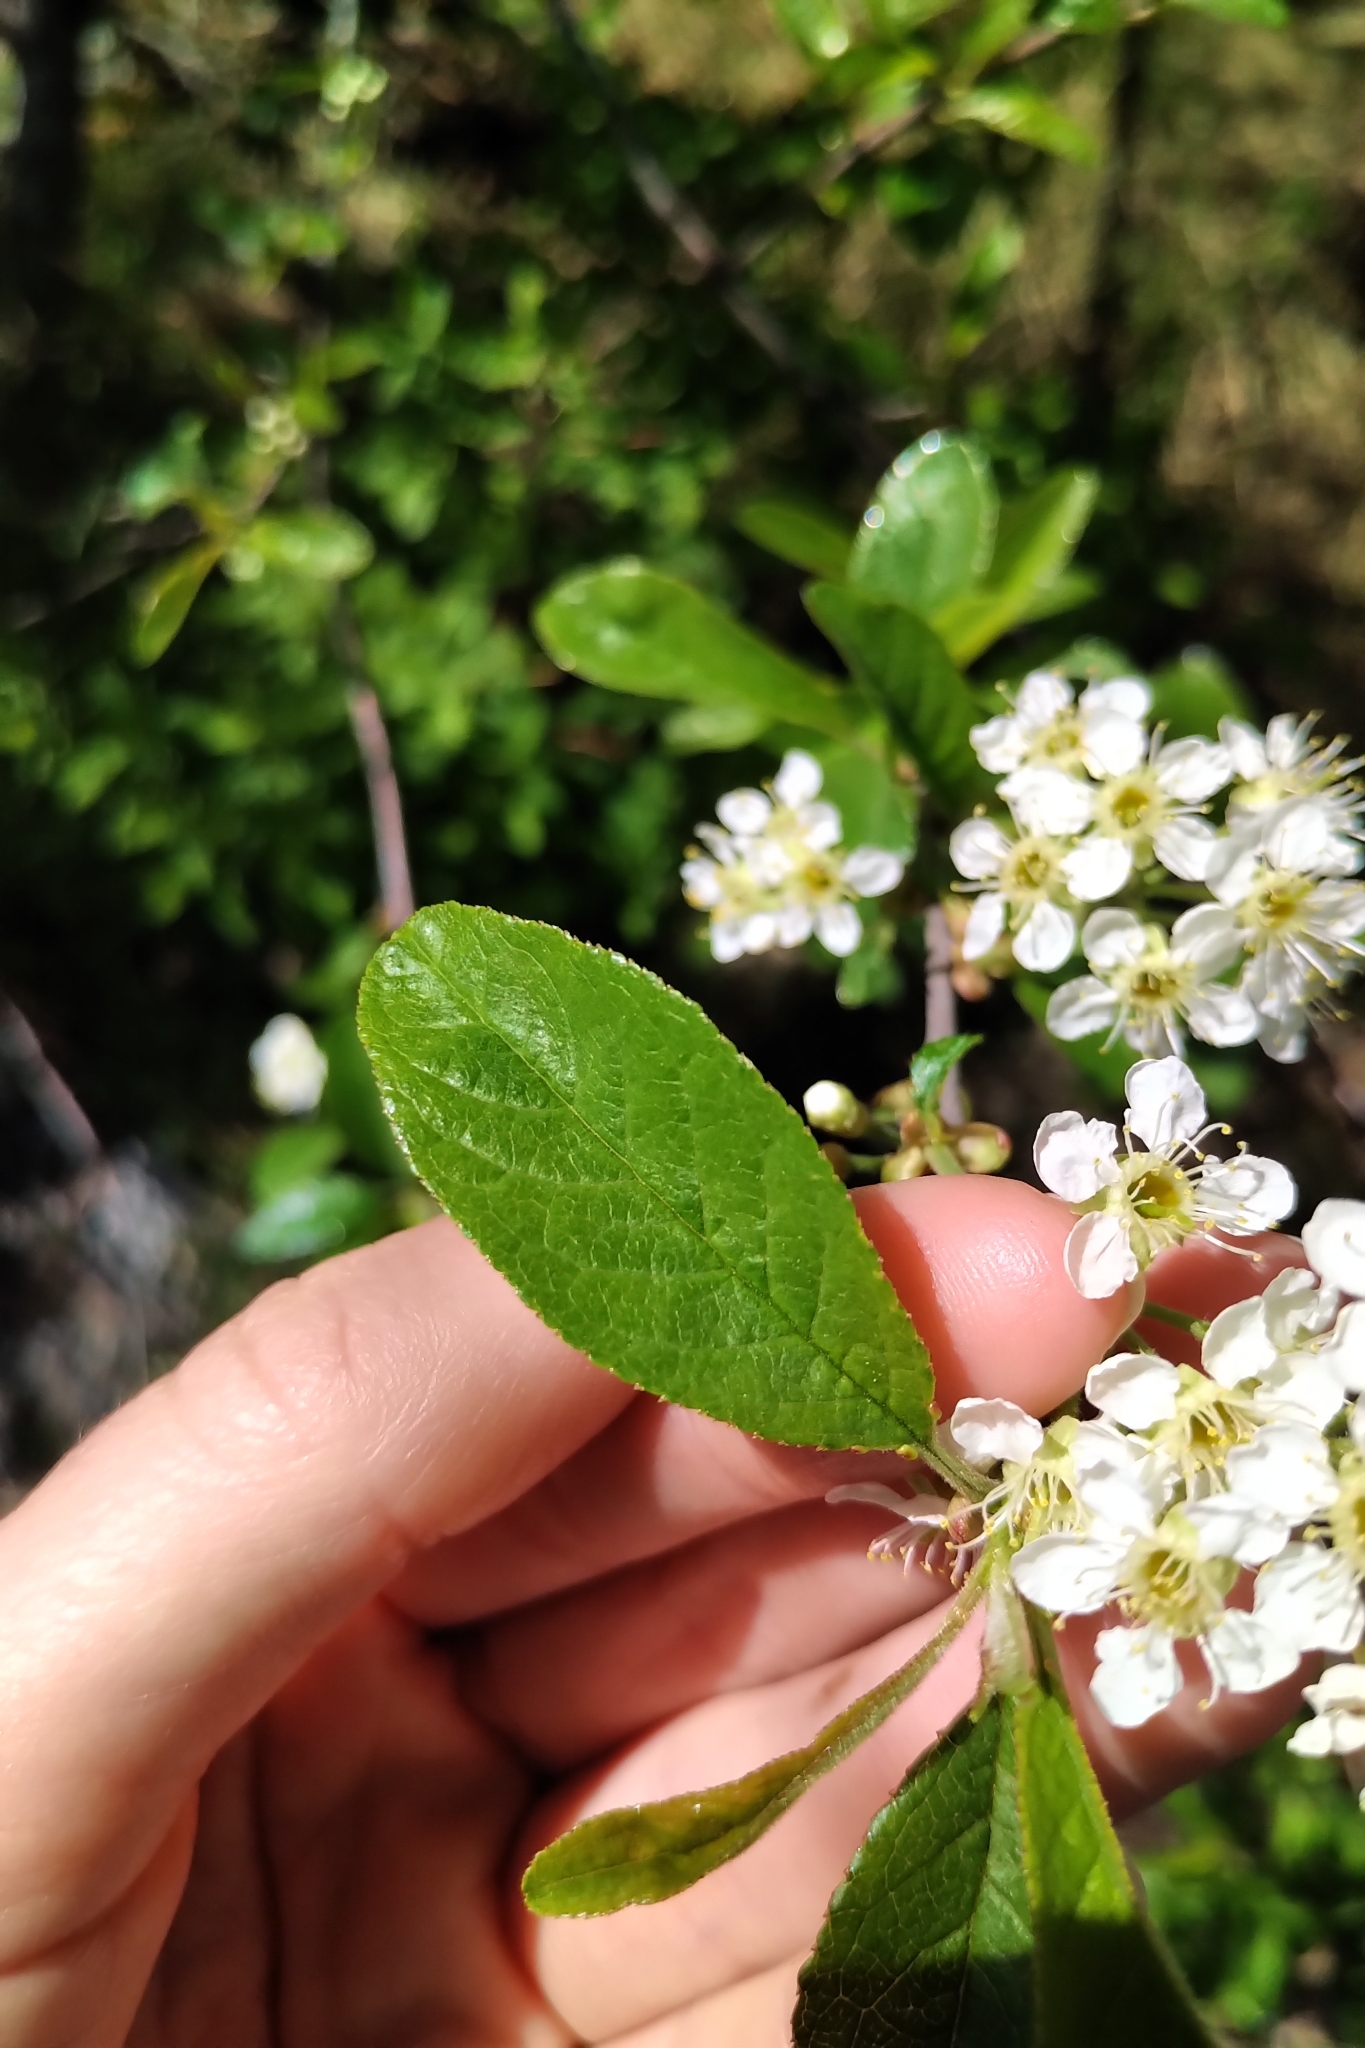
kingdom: Plantae
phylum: Tracheophyta
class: Magnoliopsida
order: Rosales
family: Rosaceae
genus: Prunus
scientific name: Prunus emarginata
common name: Bitter cherry
